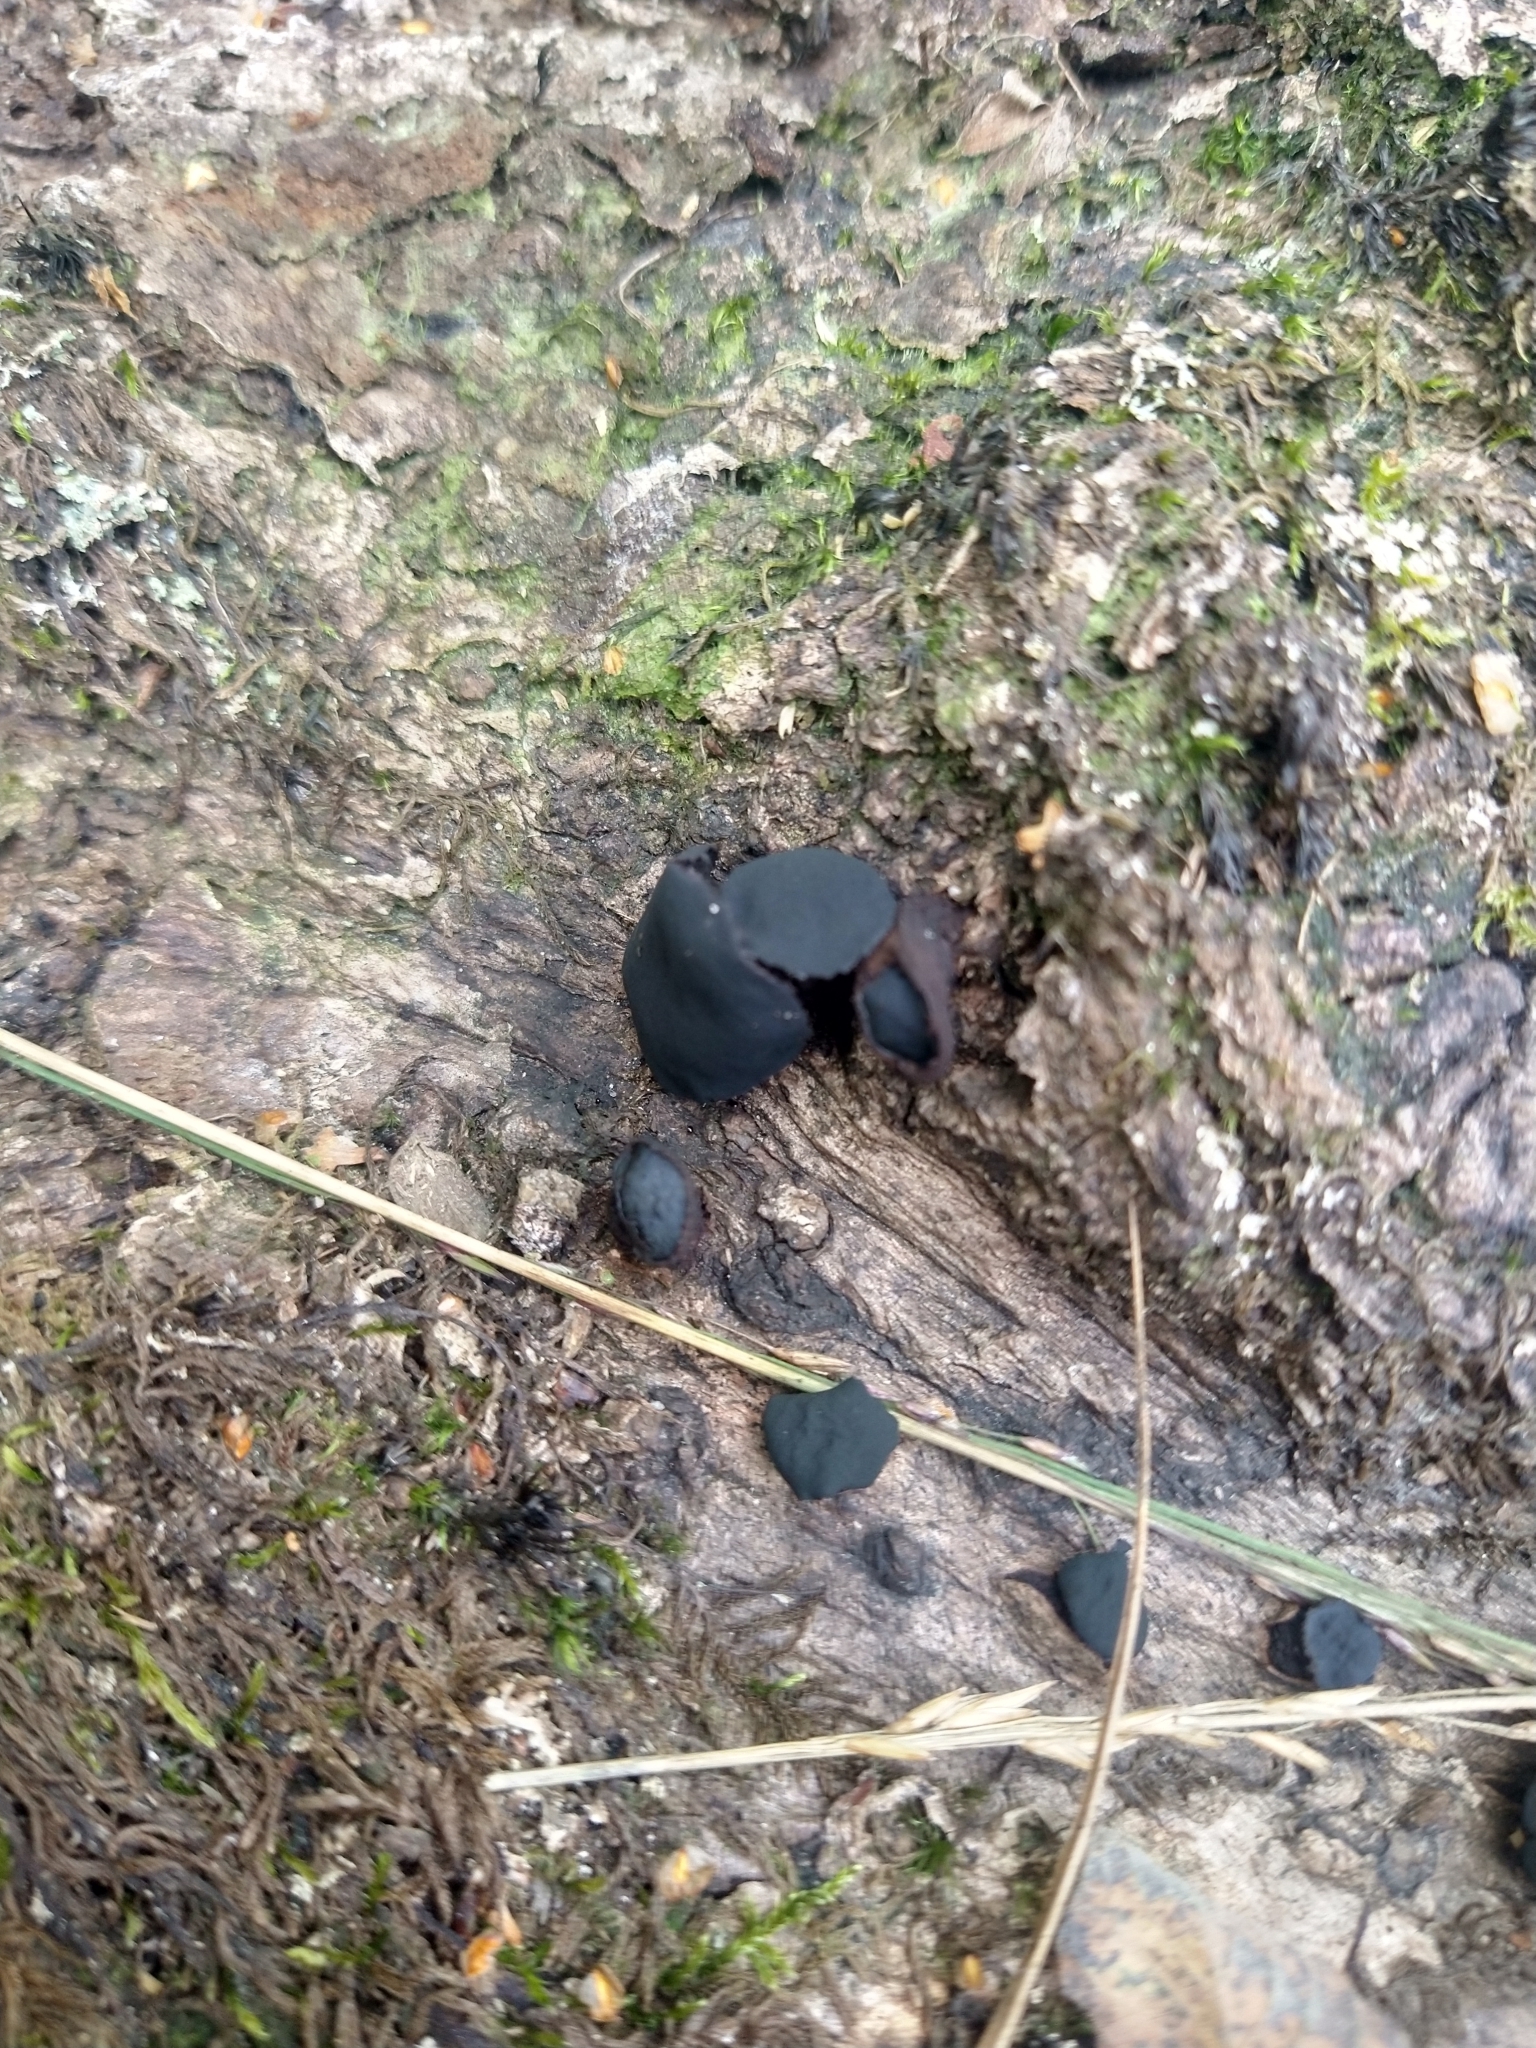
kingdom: Fungi
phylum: Ascomycota
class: Leotiomycetes
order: Phacidiales
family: Phacidiaceae
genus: Bulgaria
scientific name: Bulgaria inquinans
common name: Black bulgar
